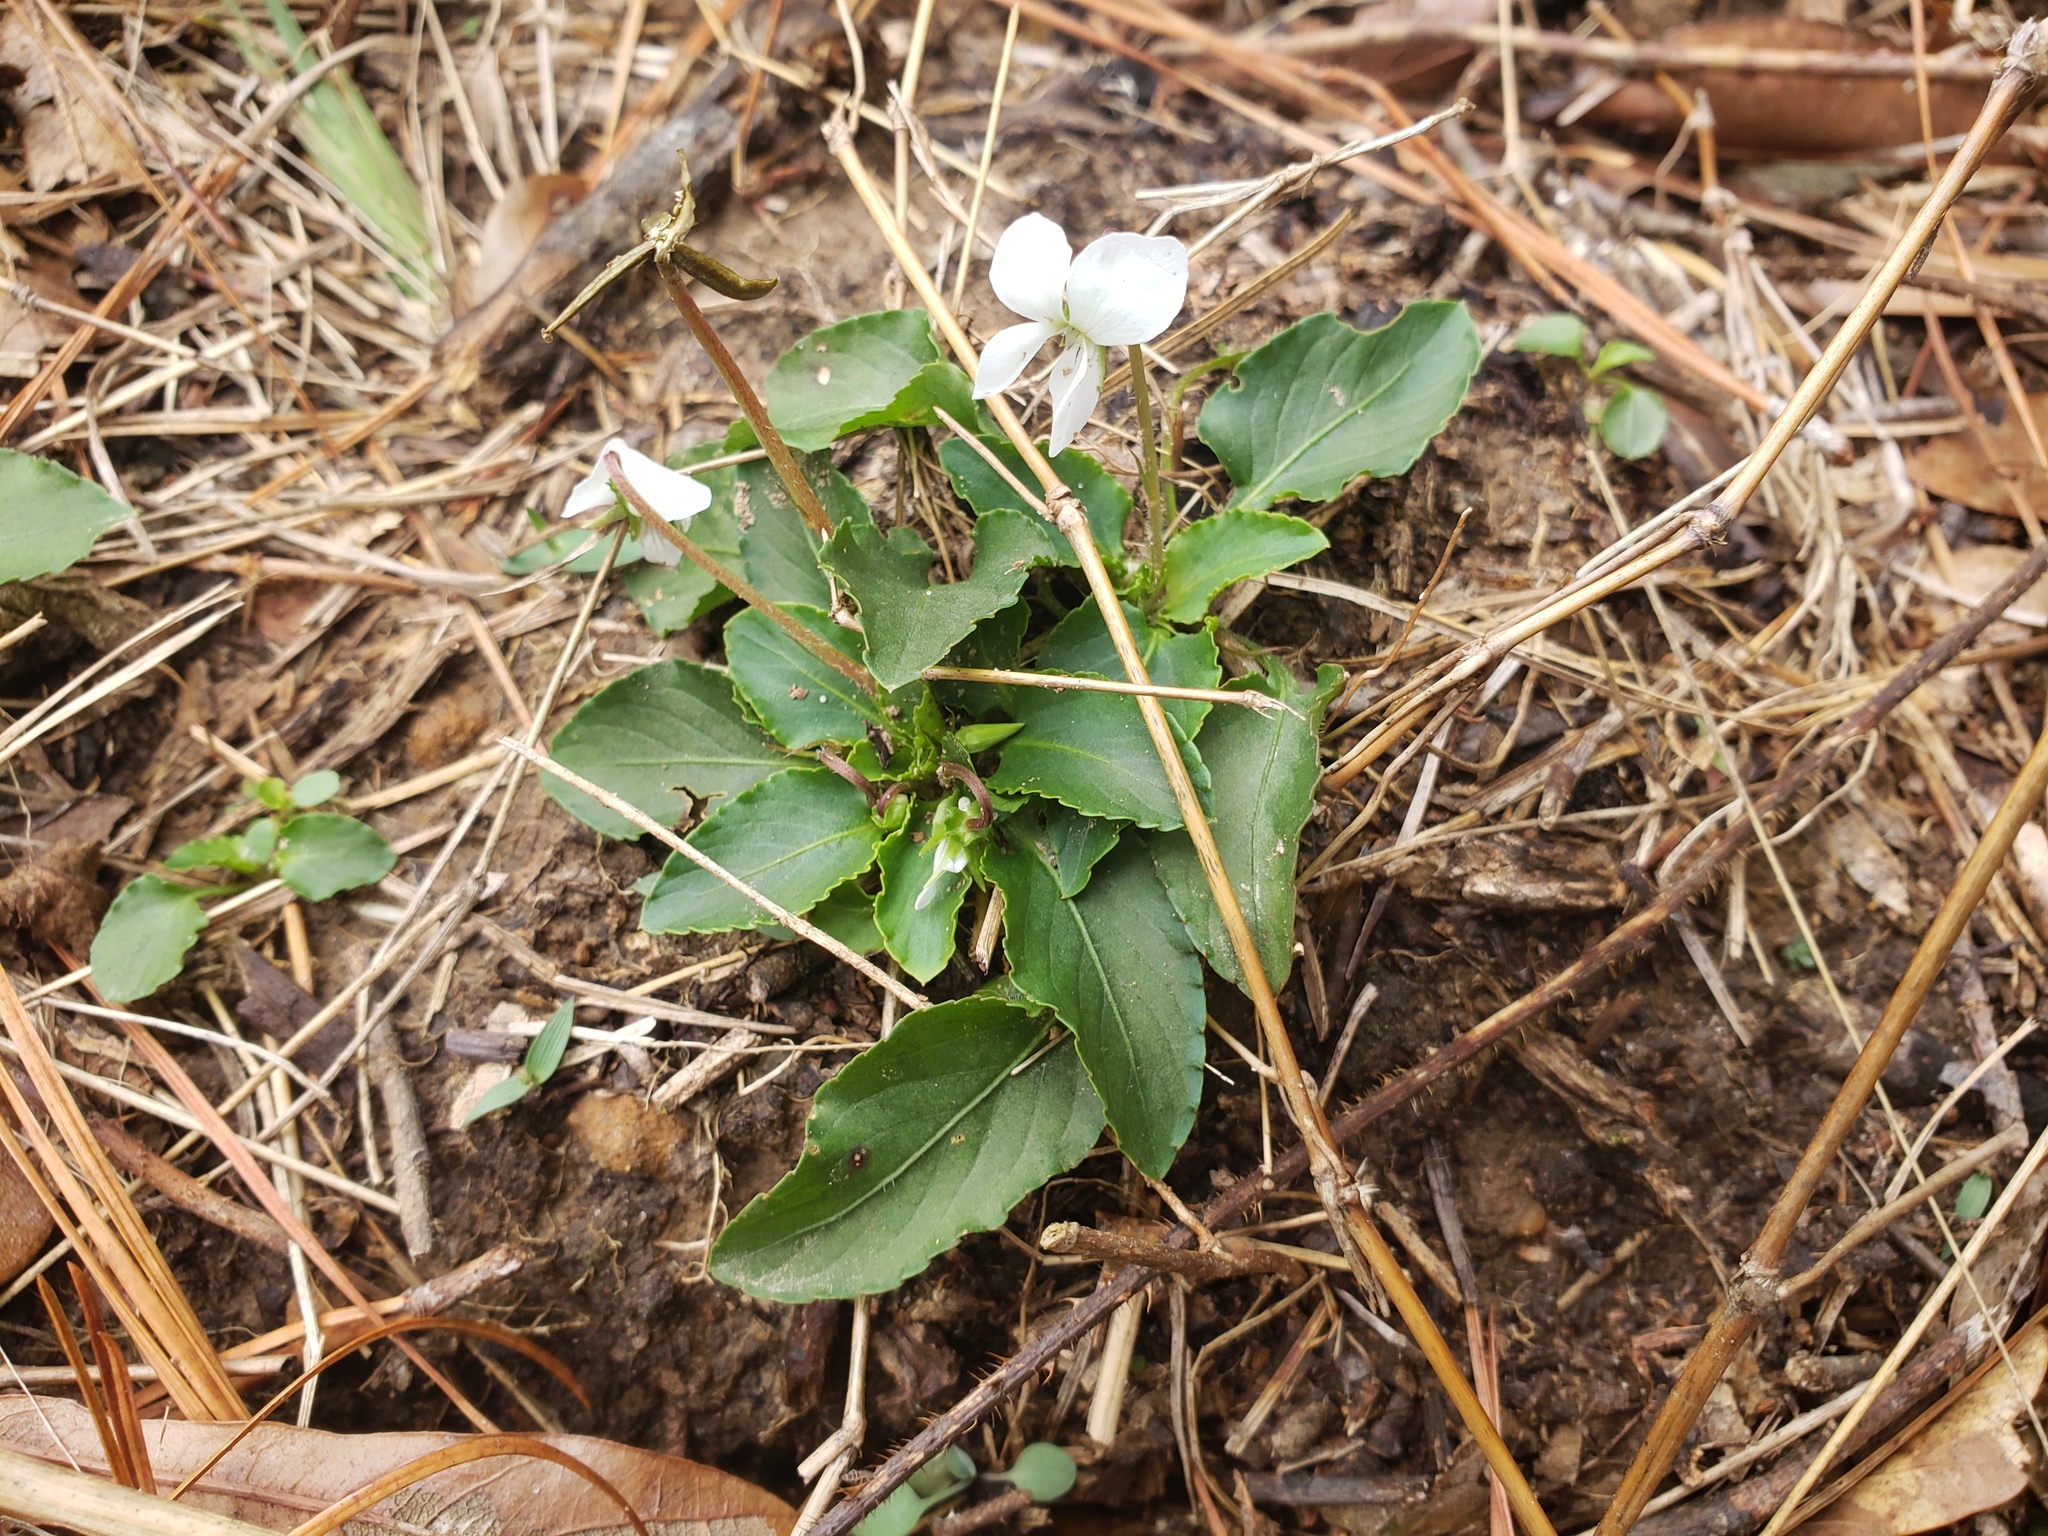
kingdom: Plantae
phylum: Tracheophyta
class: Magnoliopsida
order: Malpighiales
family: Violaceae
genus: Viola
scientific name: Viola primulifolia
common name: Primrose-leaf violet
